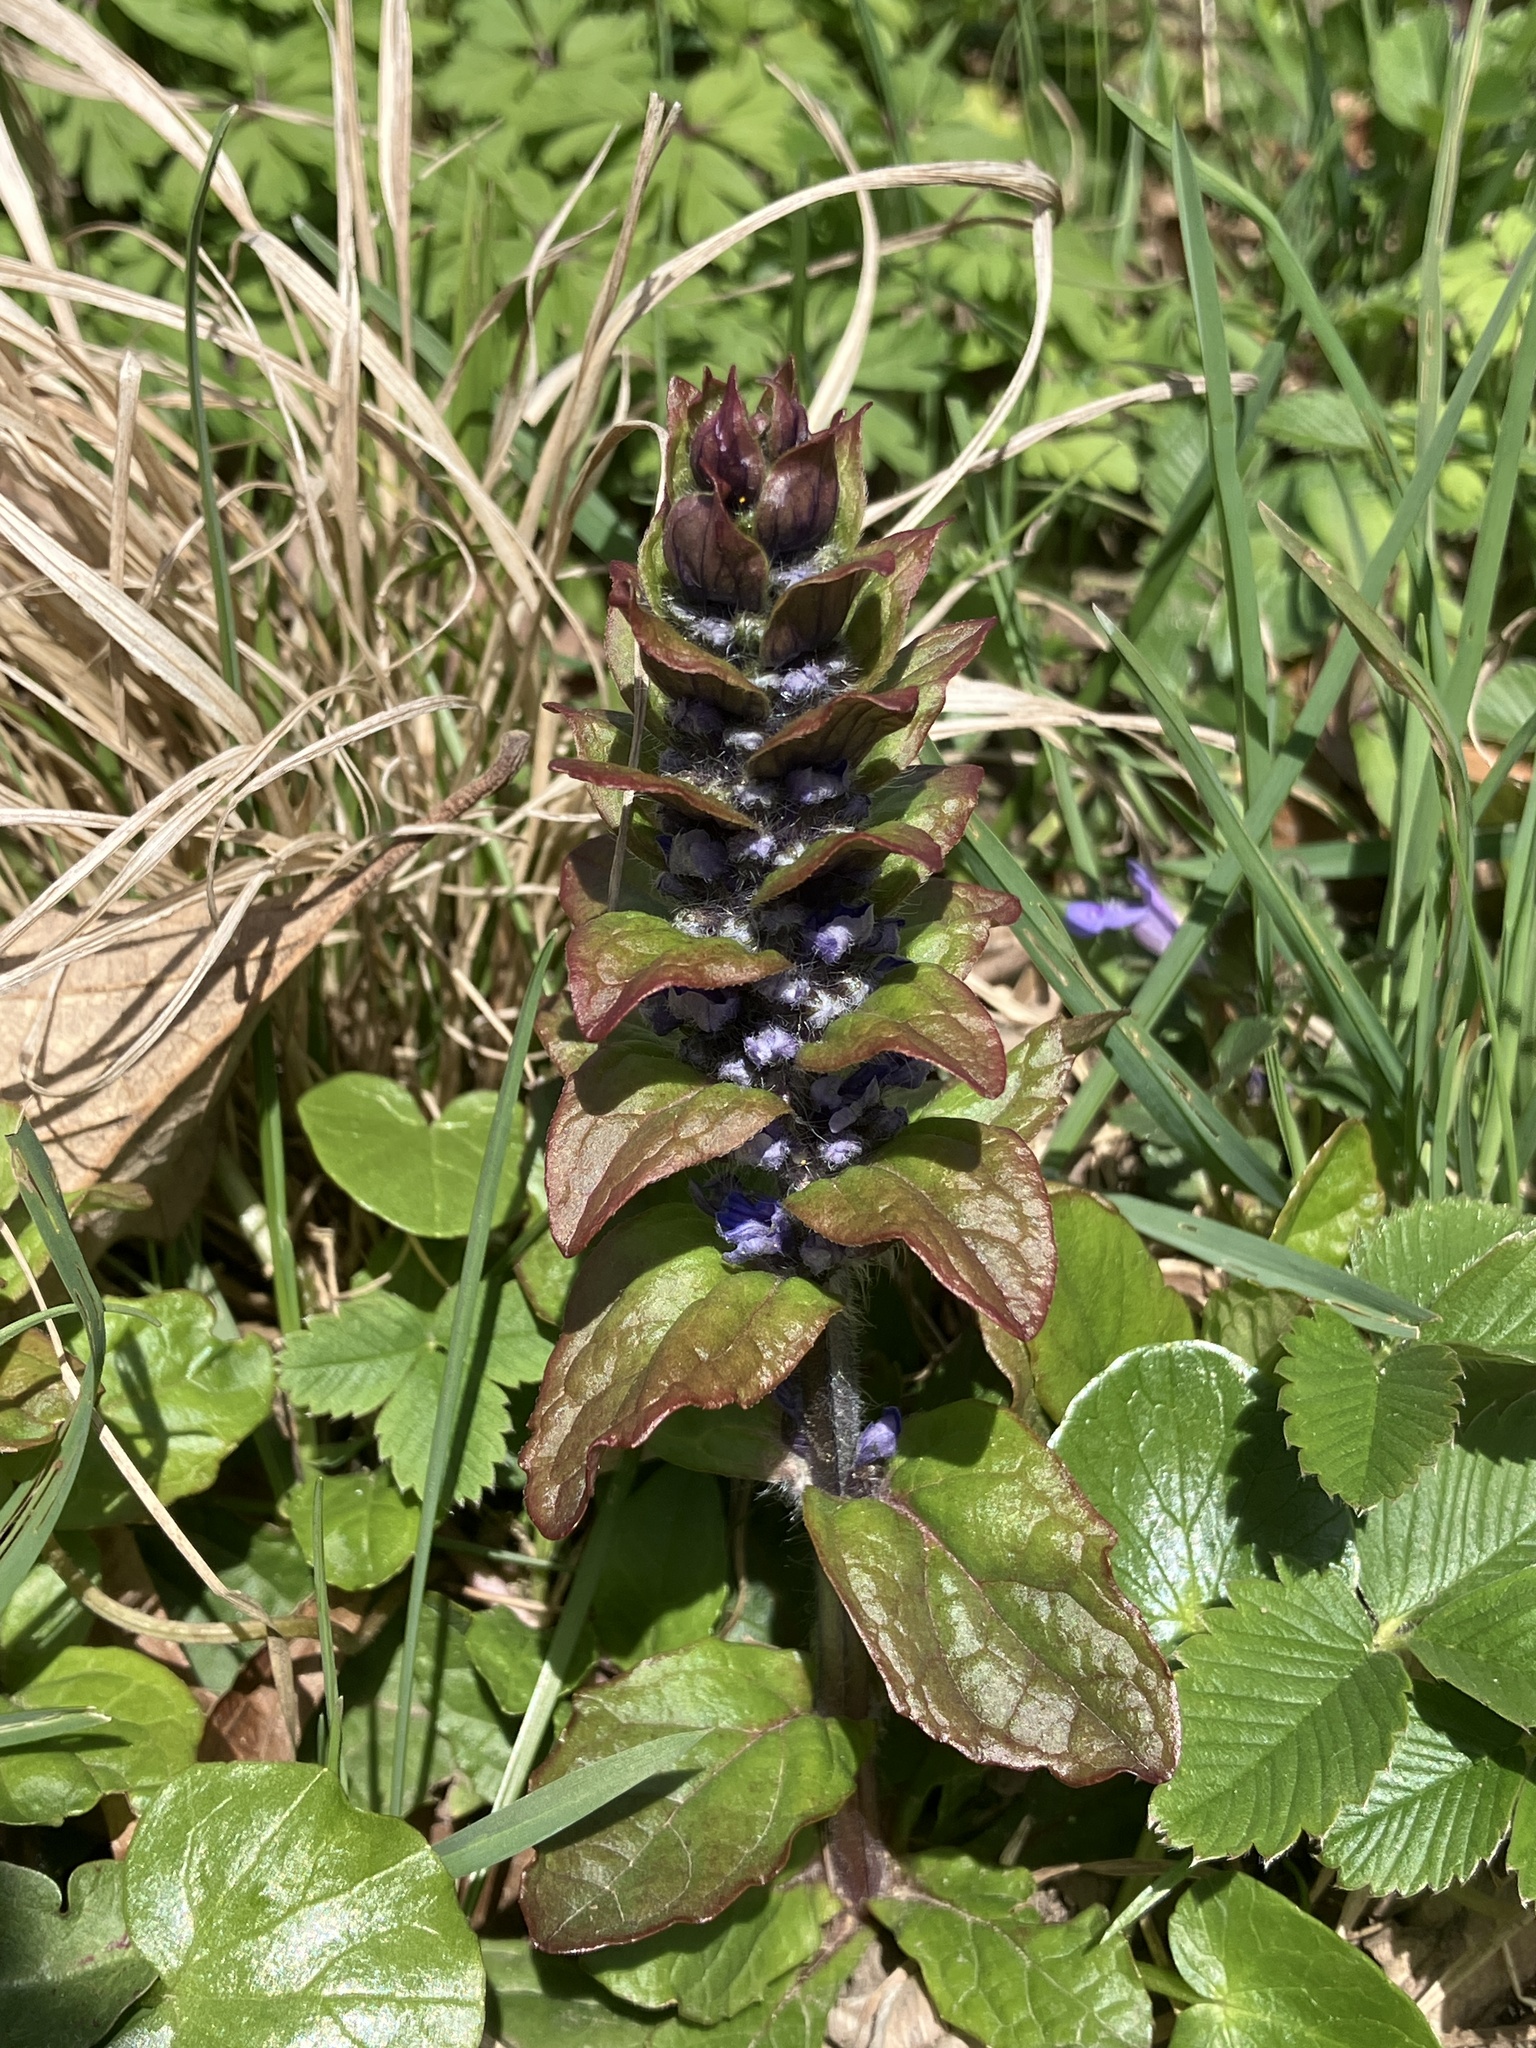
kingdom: Plantae
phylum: Tracheophyta
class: Magnoliopsida
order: Lamiales
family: Lamiaceae
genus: Ajuga
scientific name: Ajuga reptans
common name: Bugle
